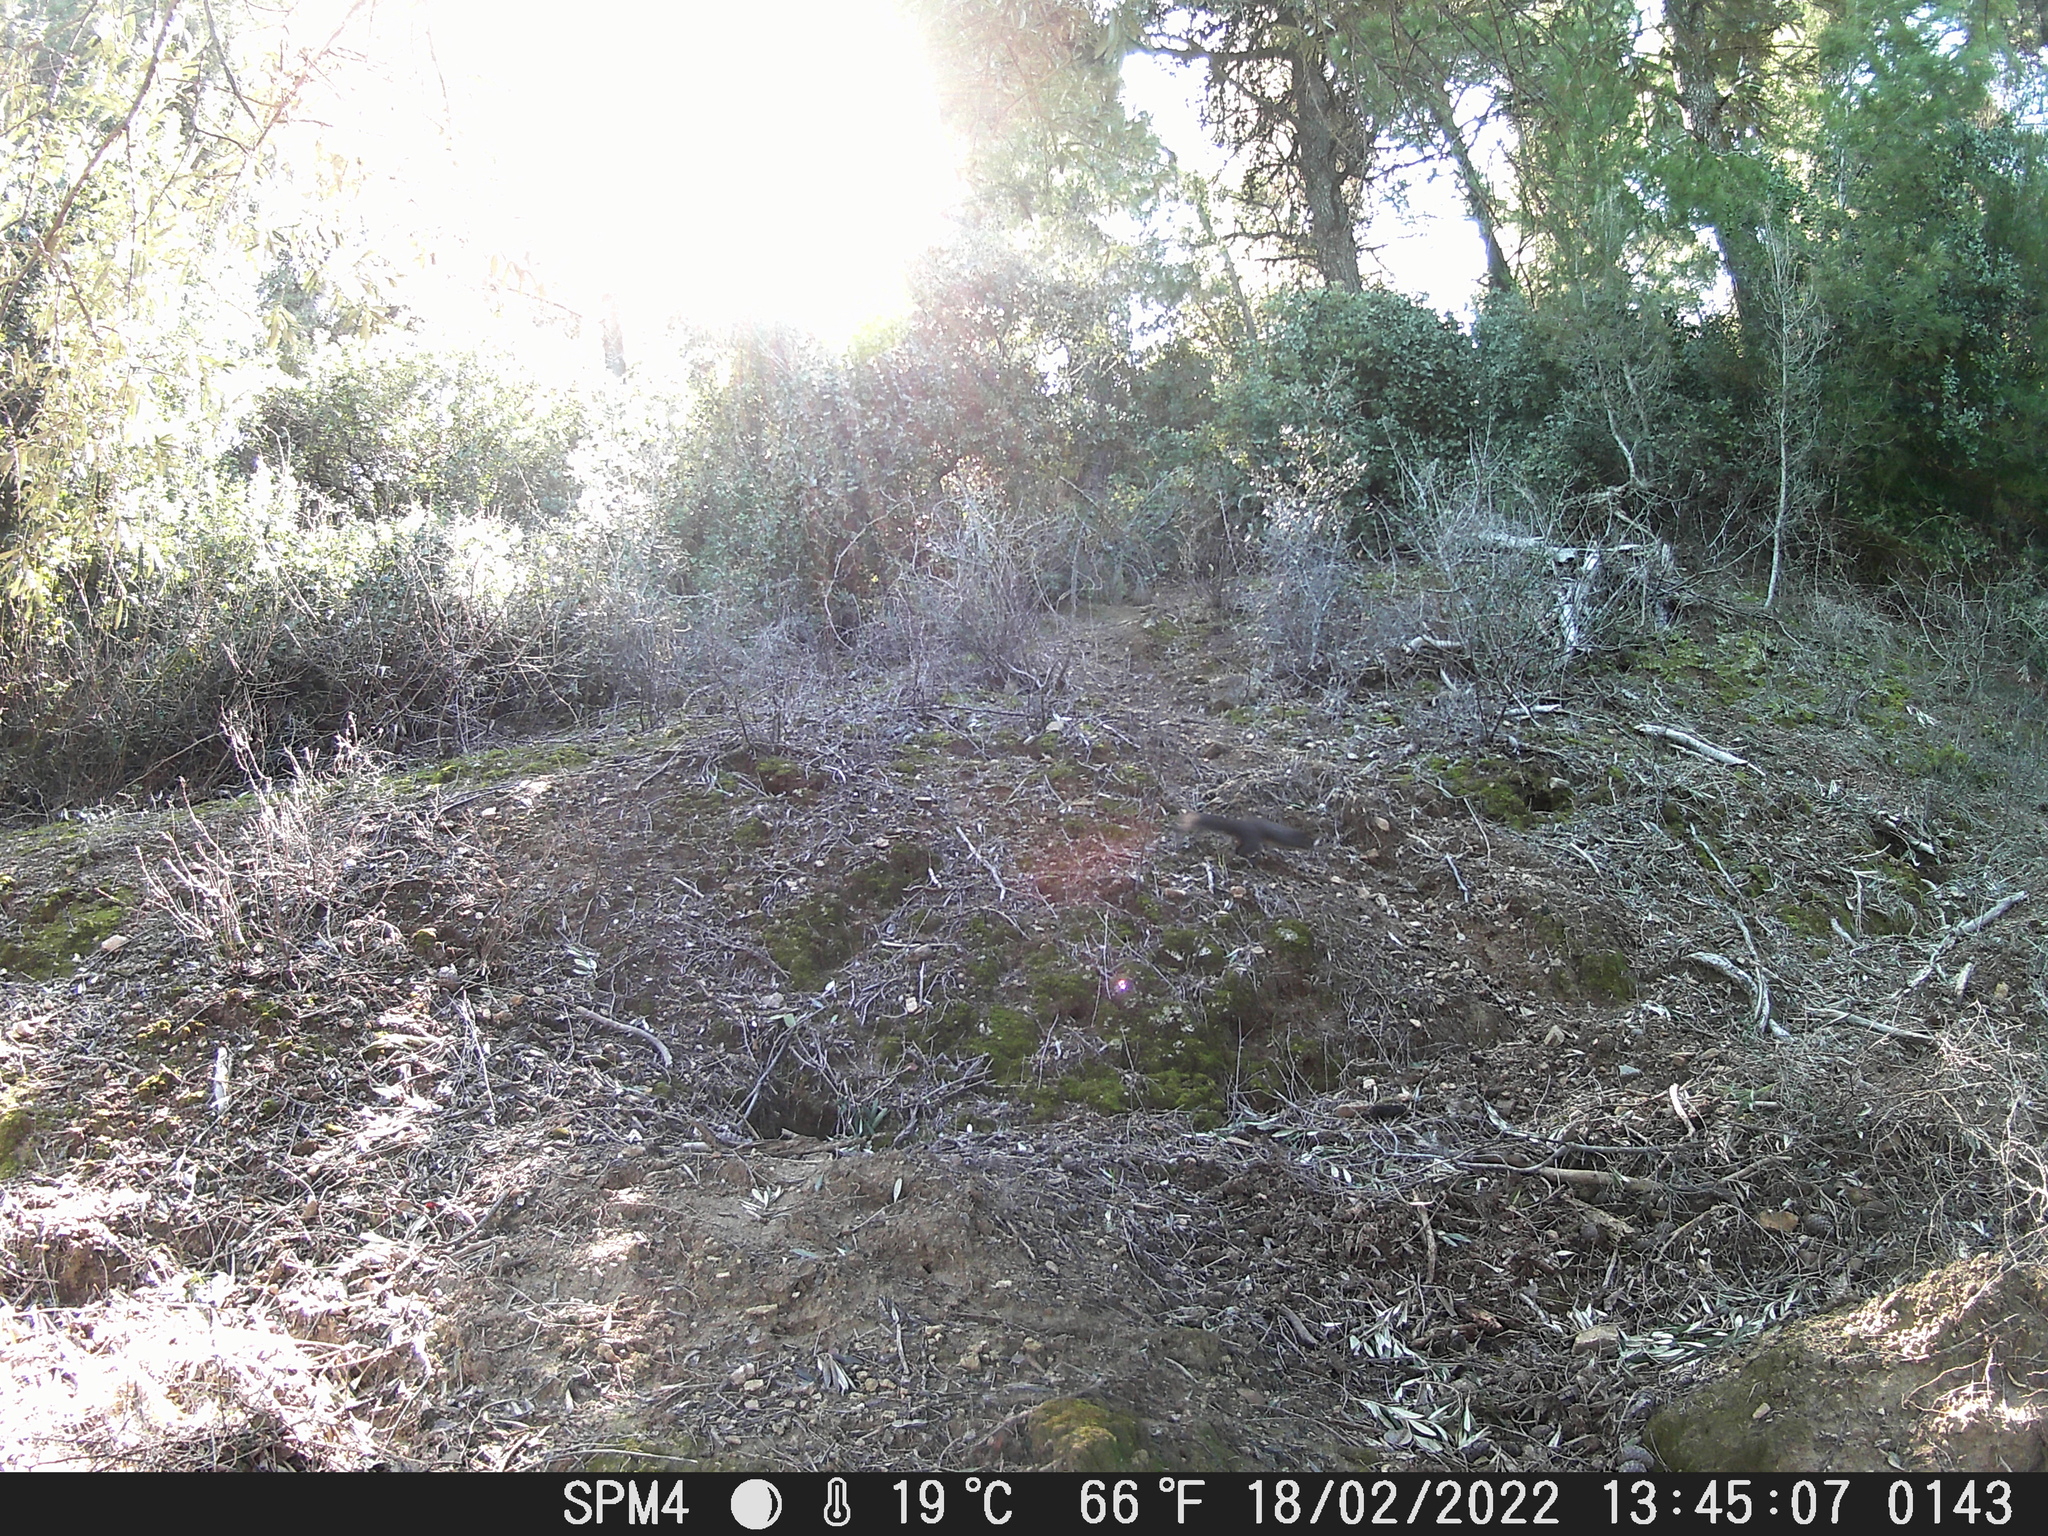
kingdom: Animalia
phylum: Chordata
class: Mammalia
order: Rodentia
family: Sciuridae
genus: Sciurus
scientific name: Sciurus vulgaris
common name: Eurasian red squirrel
